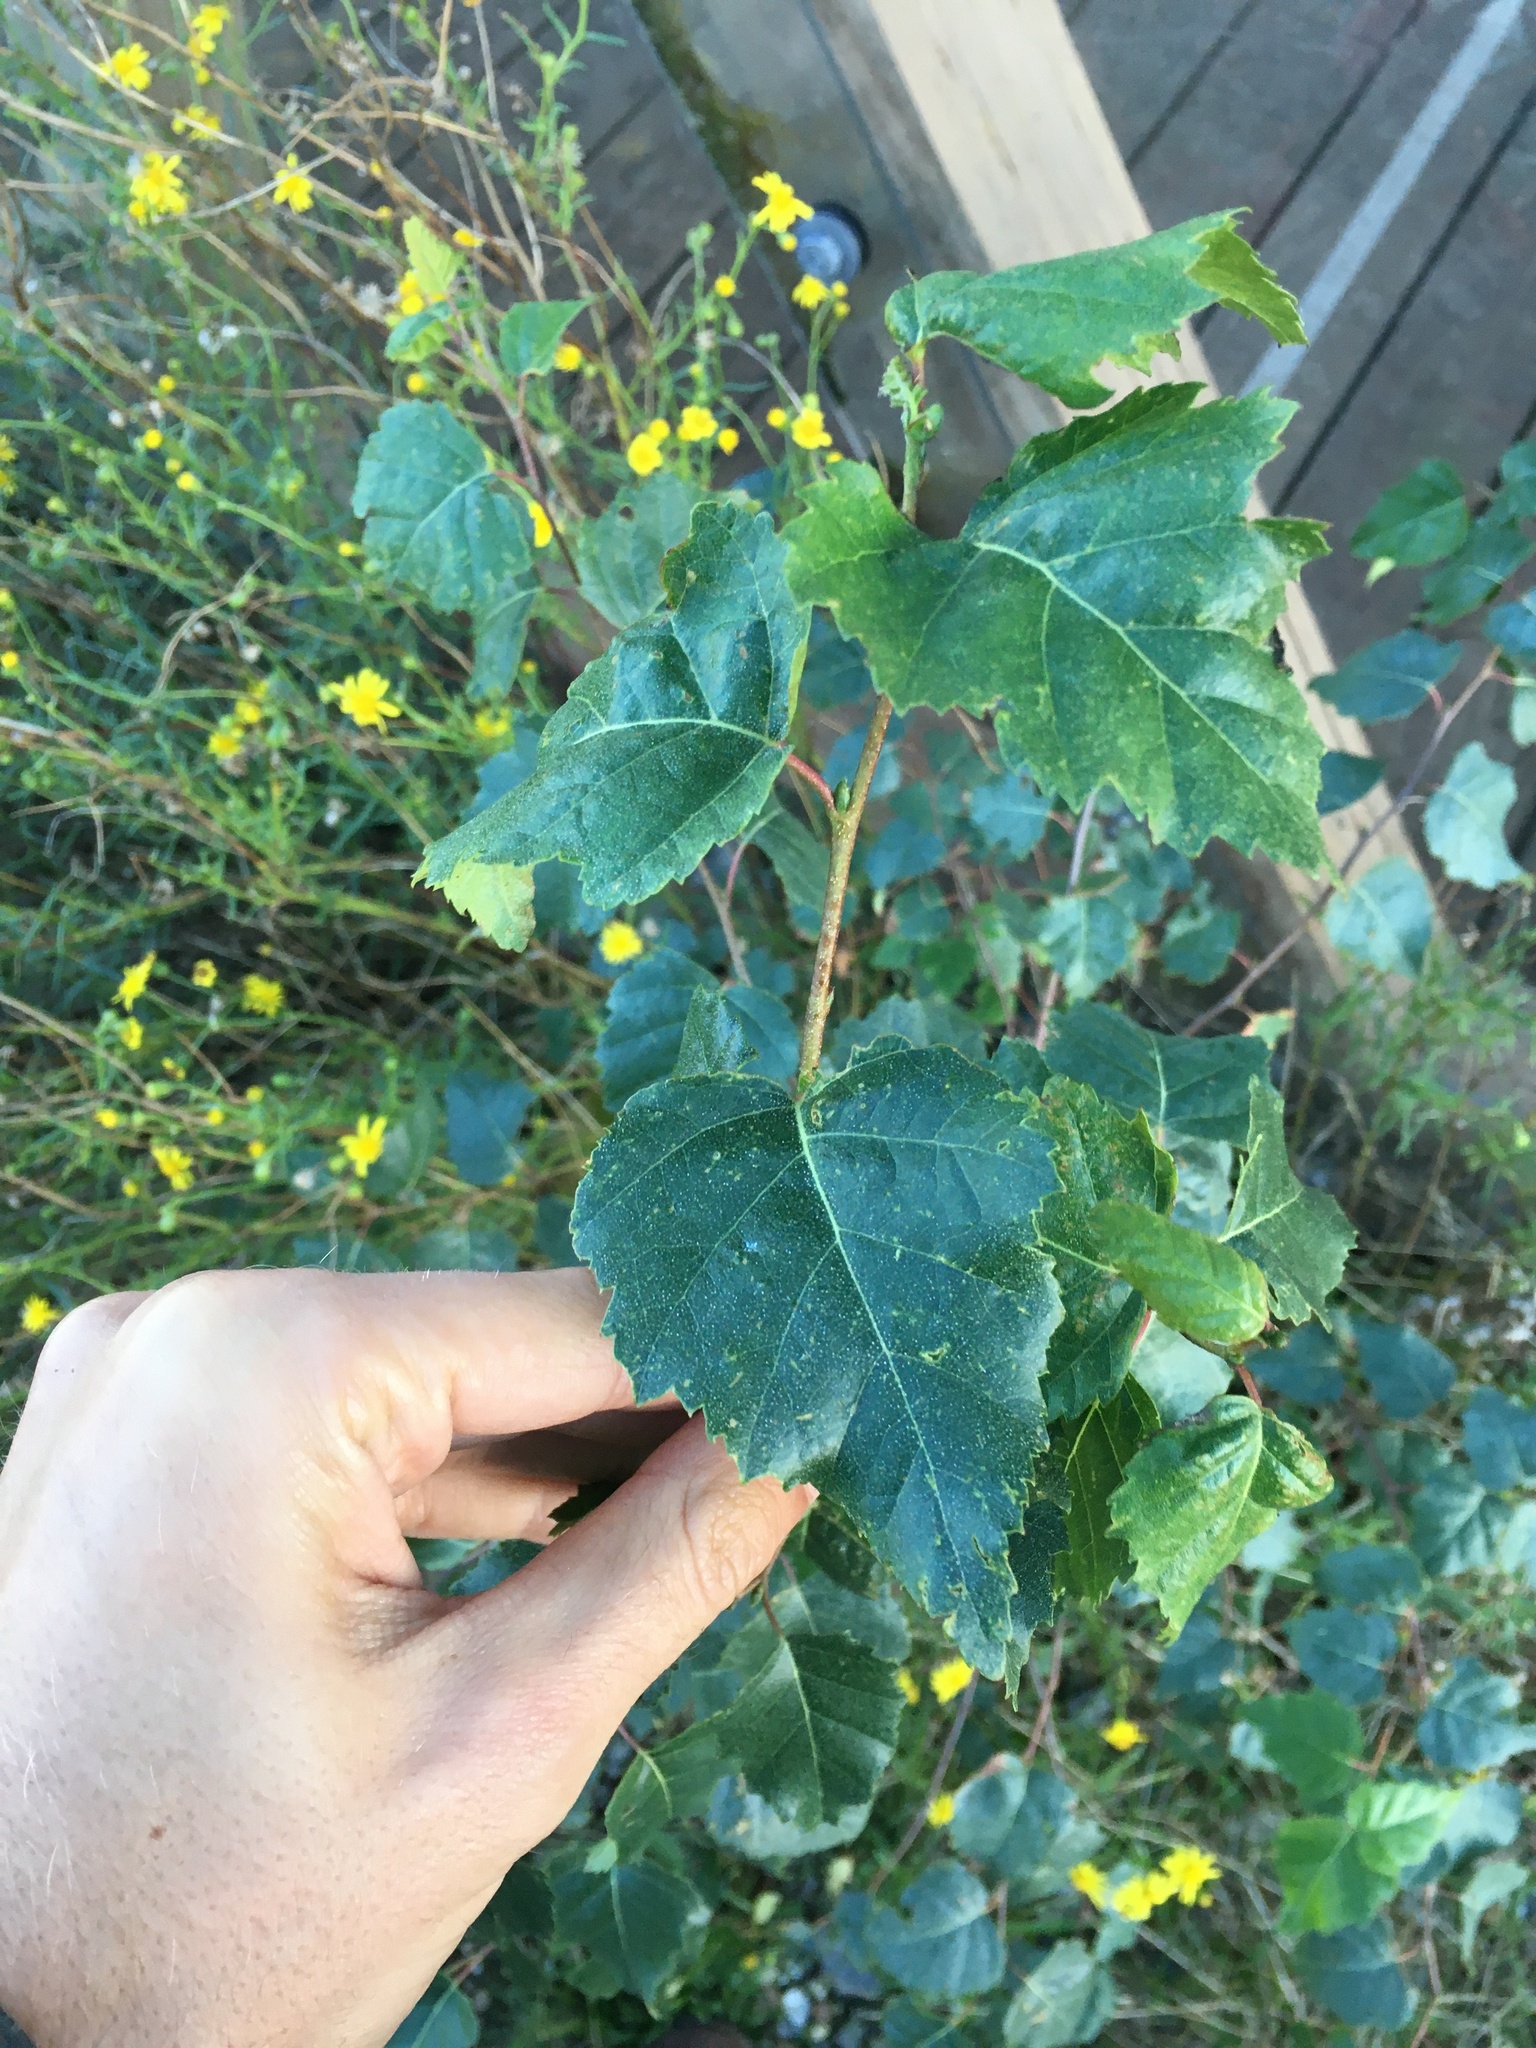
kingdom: Plantae
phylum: Tracheophyta
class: Magnoliopsida
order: Fagales
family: Betulaceae
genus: Betula
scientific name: Betula pendula
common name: Silver birch
